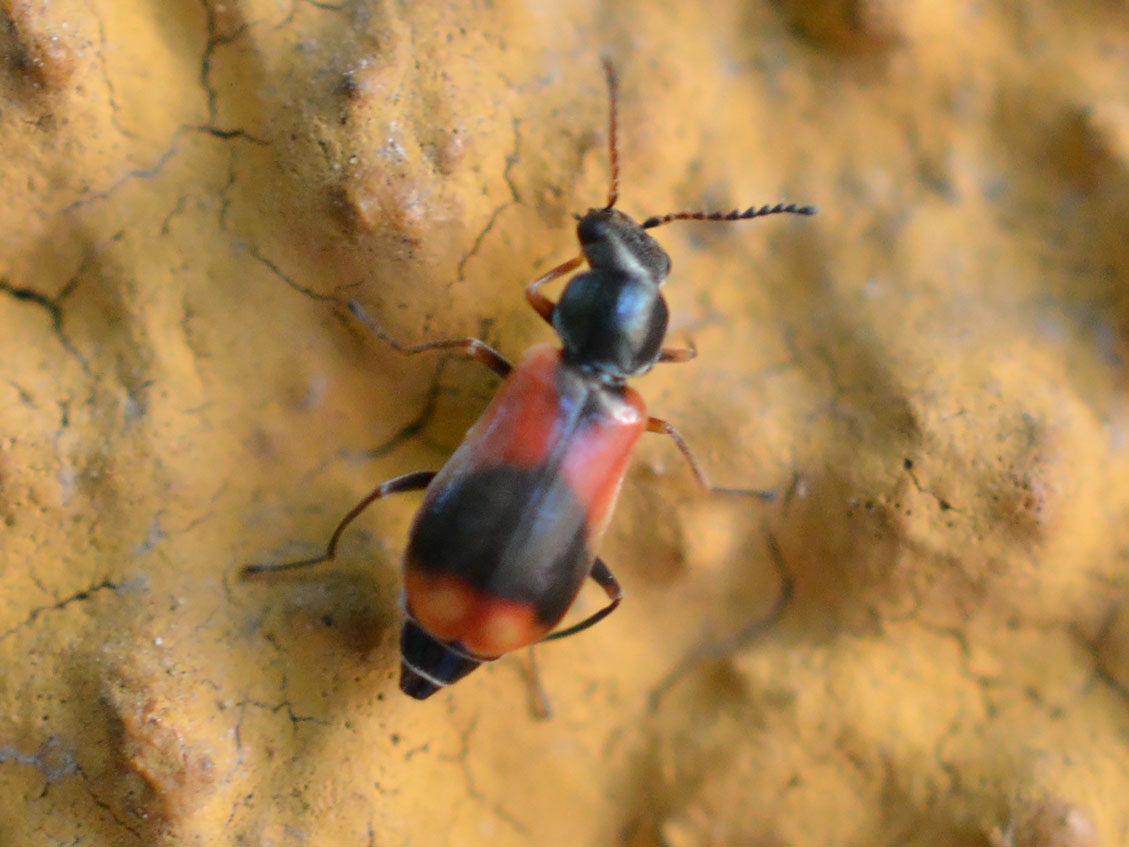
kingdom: Animalia
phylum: Arthropoda
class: Insecta
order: Coleoptera
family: Melyridae
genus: Anthocomus
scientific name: Anthocomus equestris
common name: Black-banded soft-winged flower beetle
